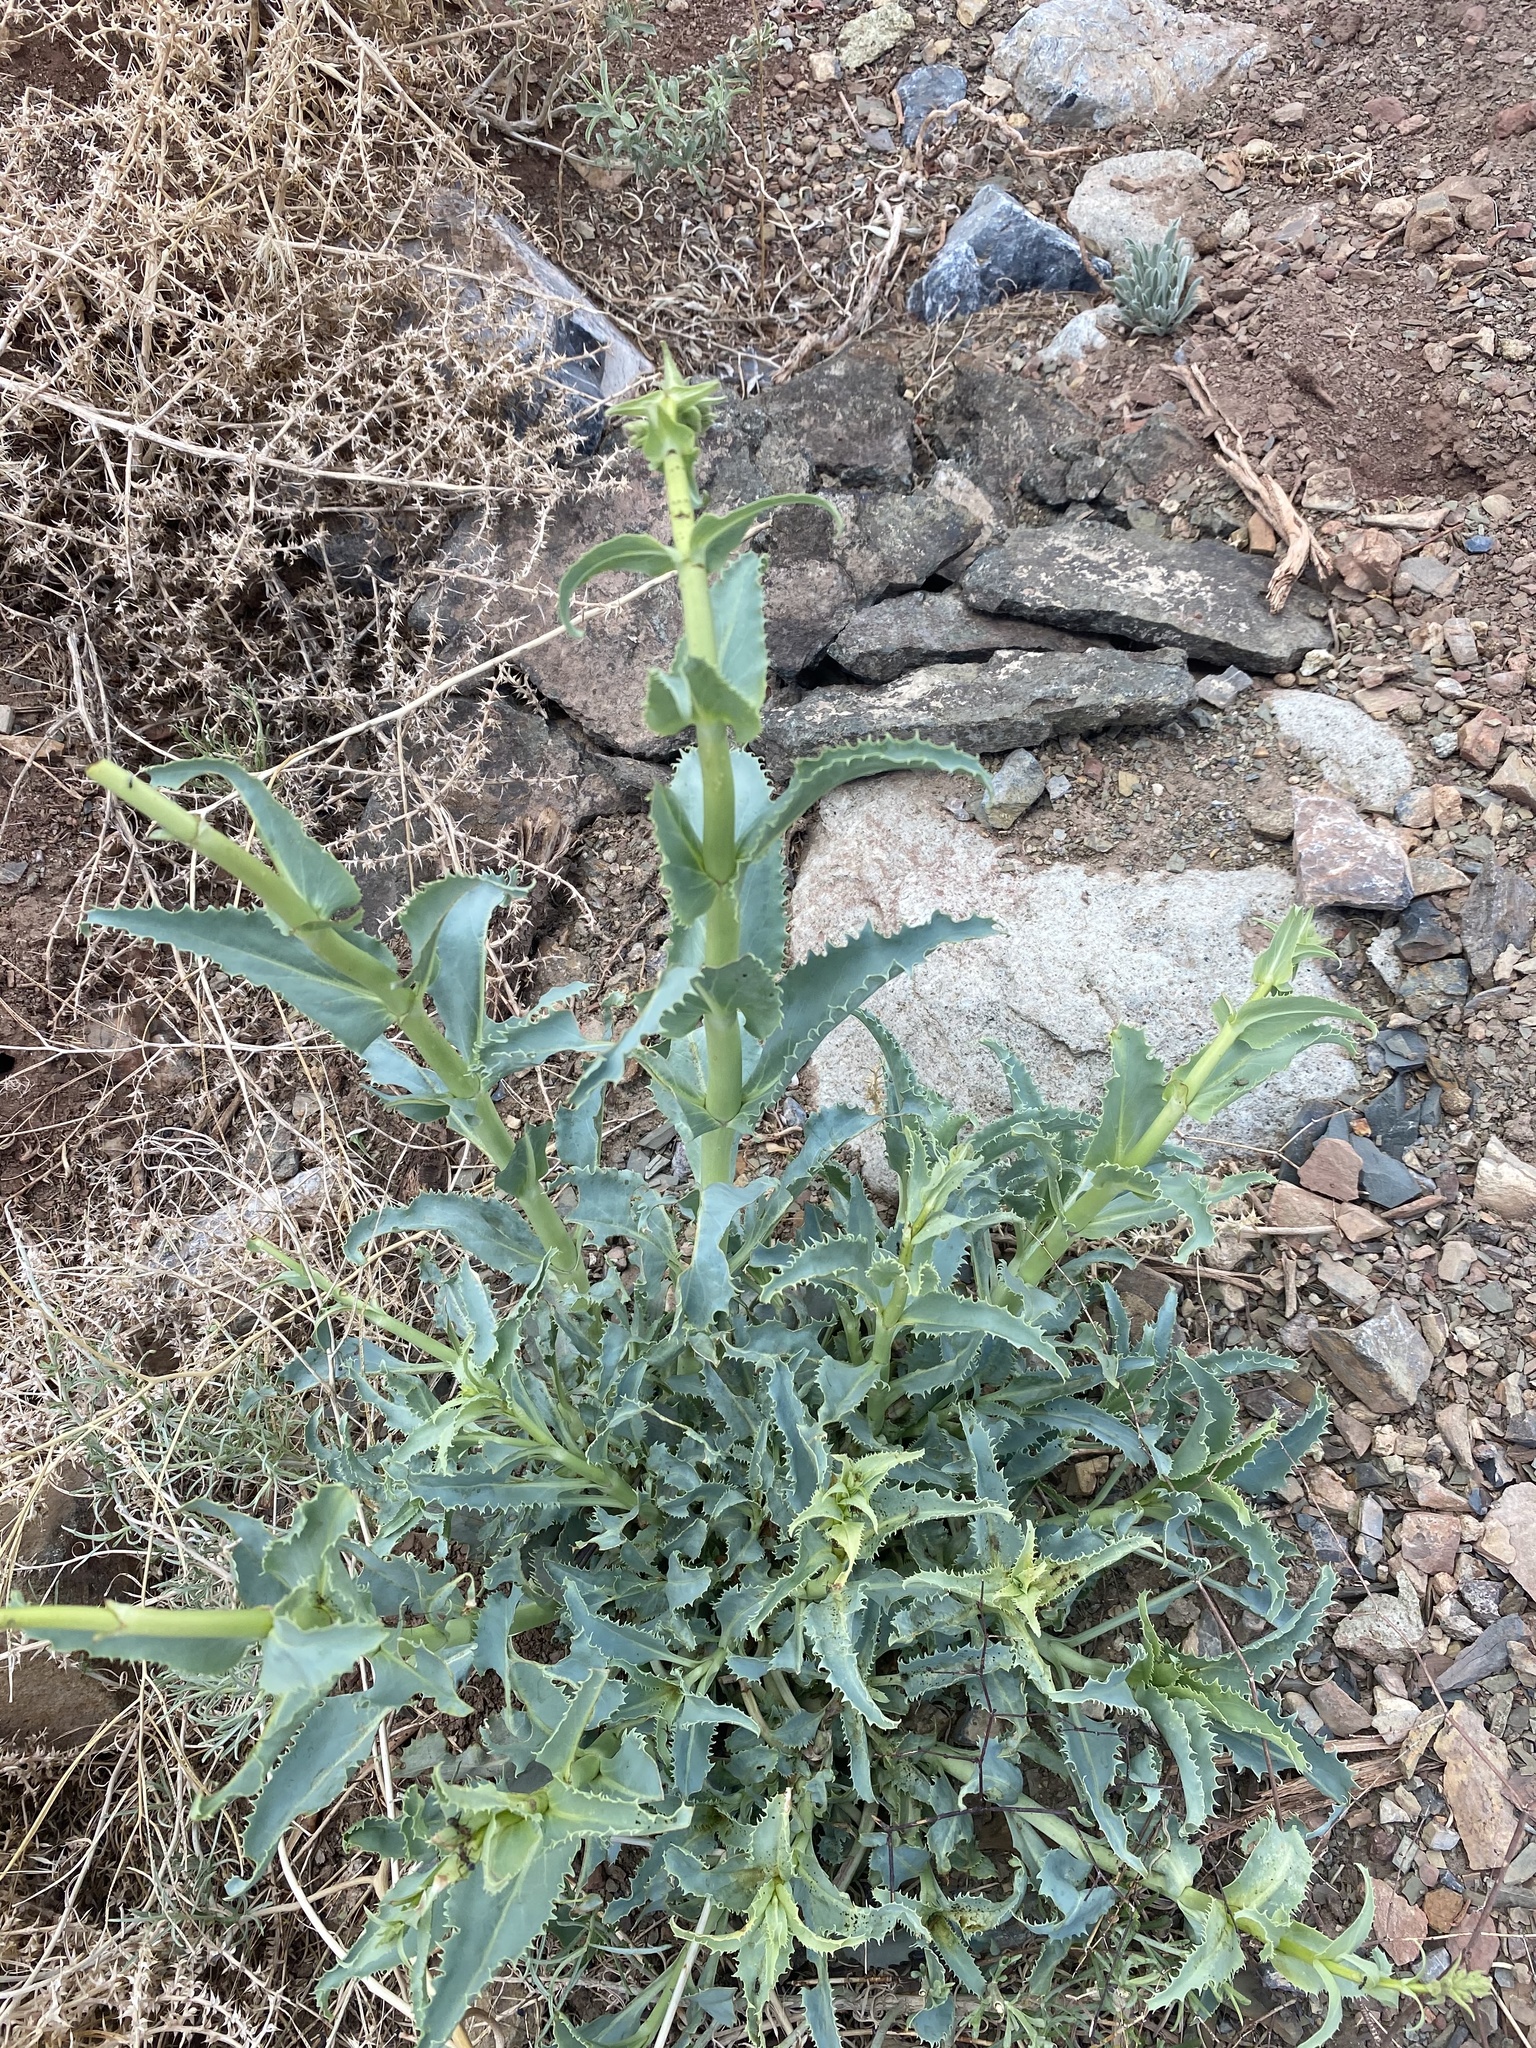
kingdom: Plantae
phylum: Tracheophyta
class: Magnoliopsida
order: Lamiales
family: Plantaginaceae
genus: Penstemon
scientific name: Penstemon palmeri
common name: Palmer penstemon
